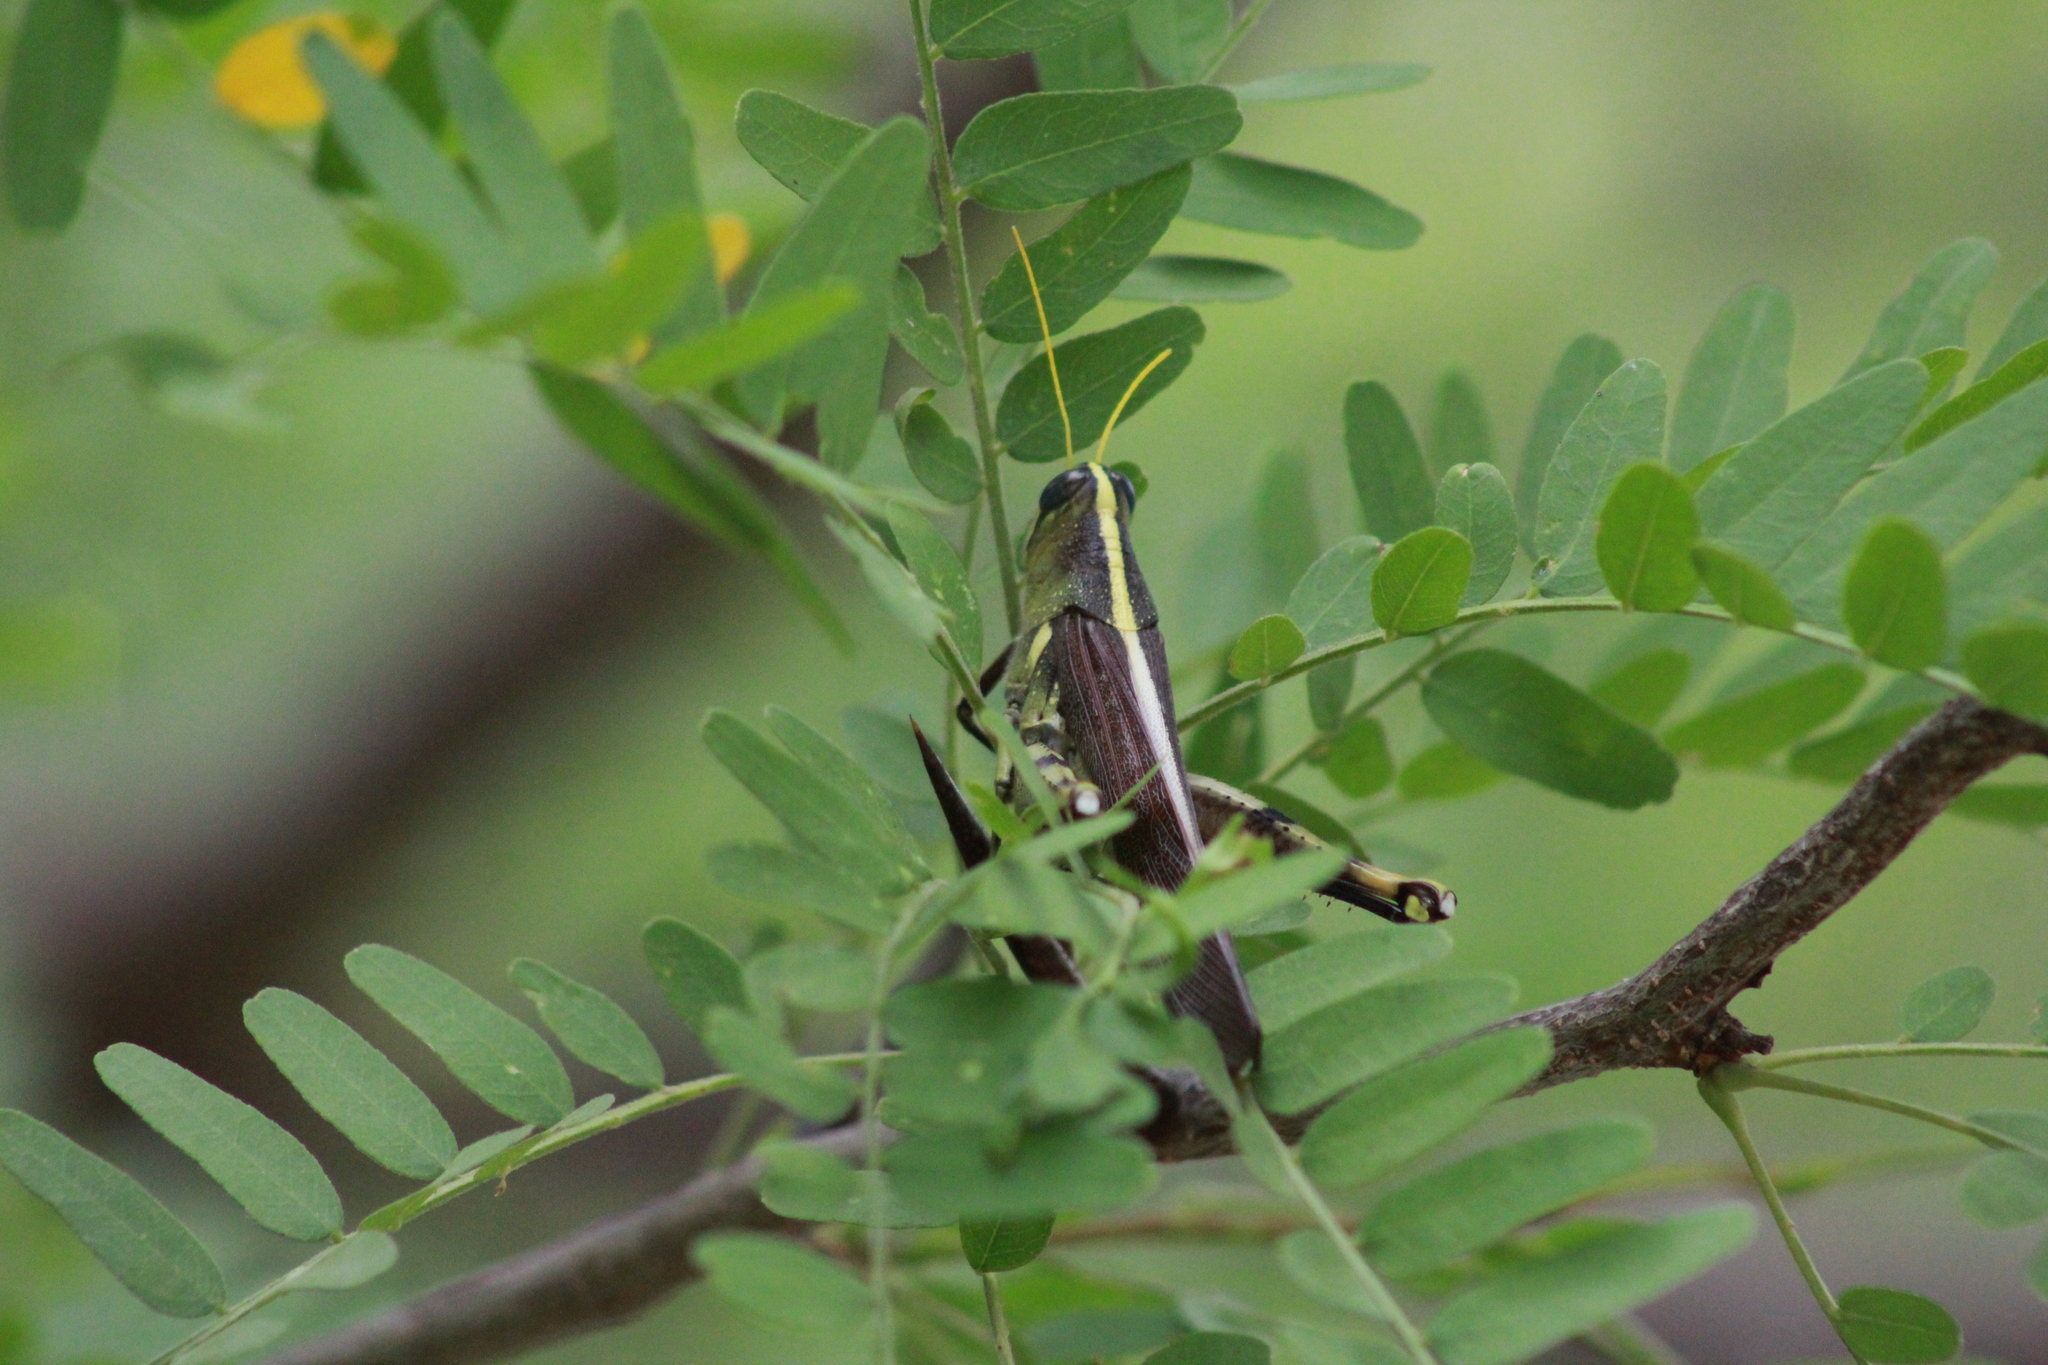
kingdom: Animalia
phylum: Arthropoda
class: Insecta
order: Orthoptera
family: Acrididae
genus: Schistocerca
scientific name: Schistocerca obscura
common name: Obscure bird grasshopper
